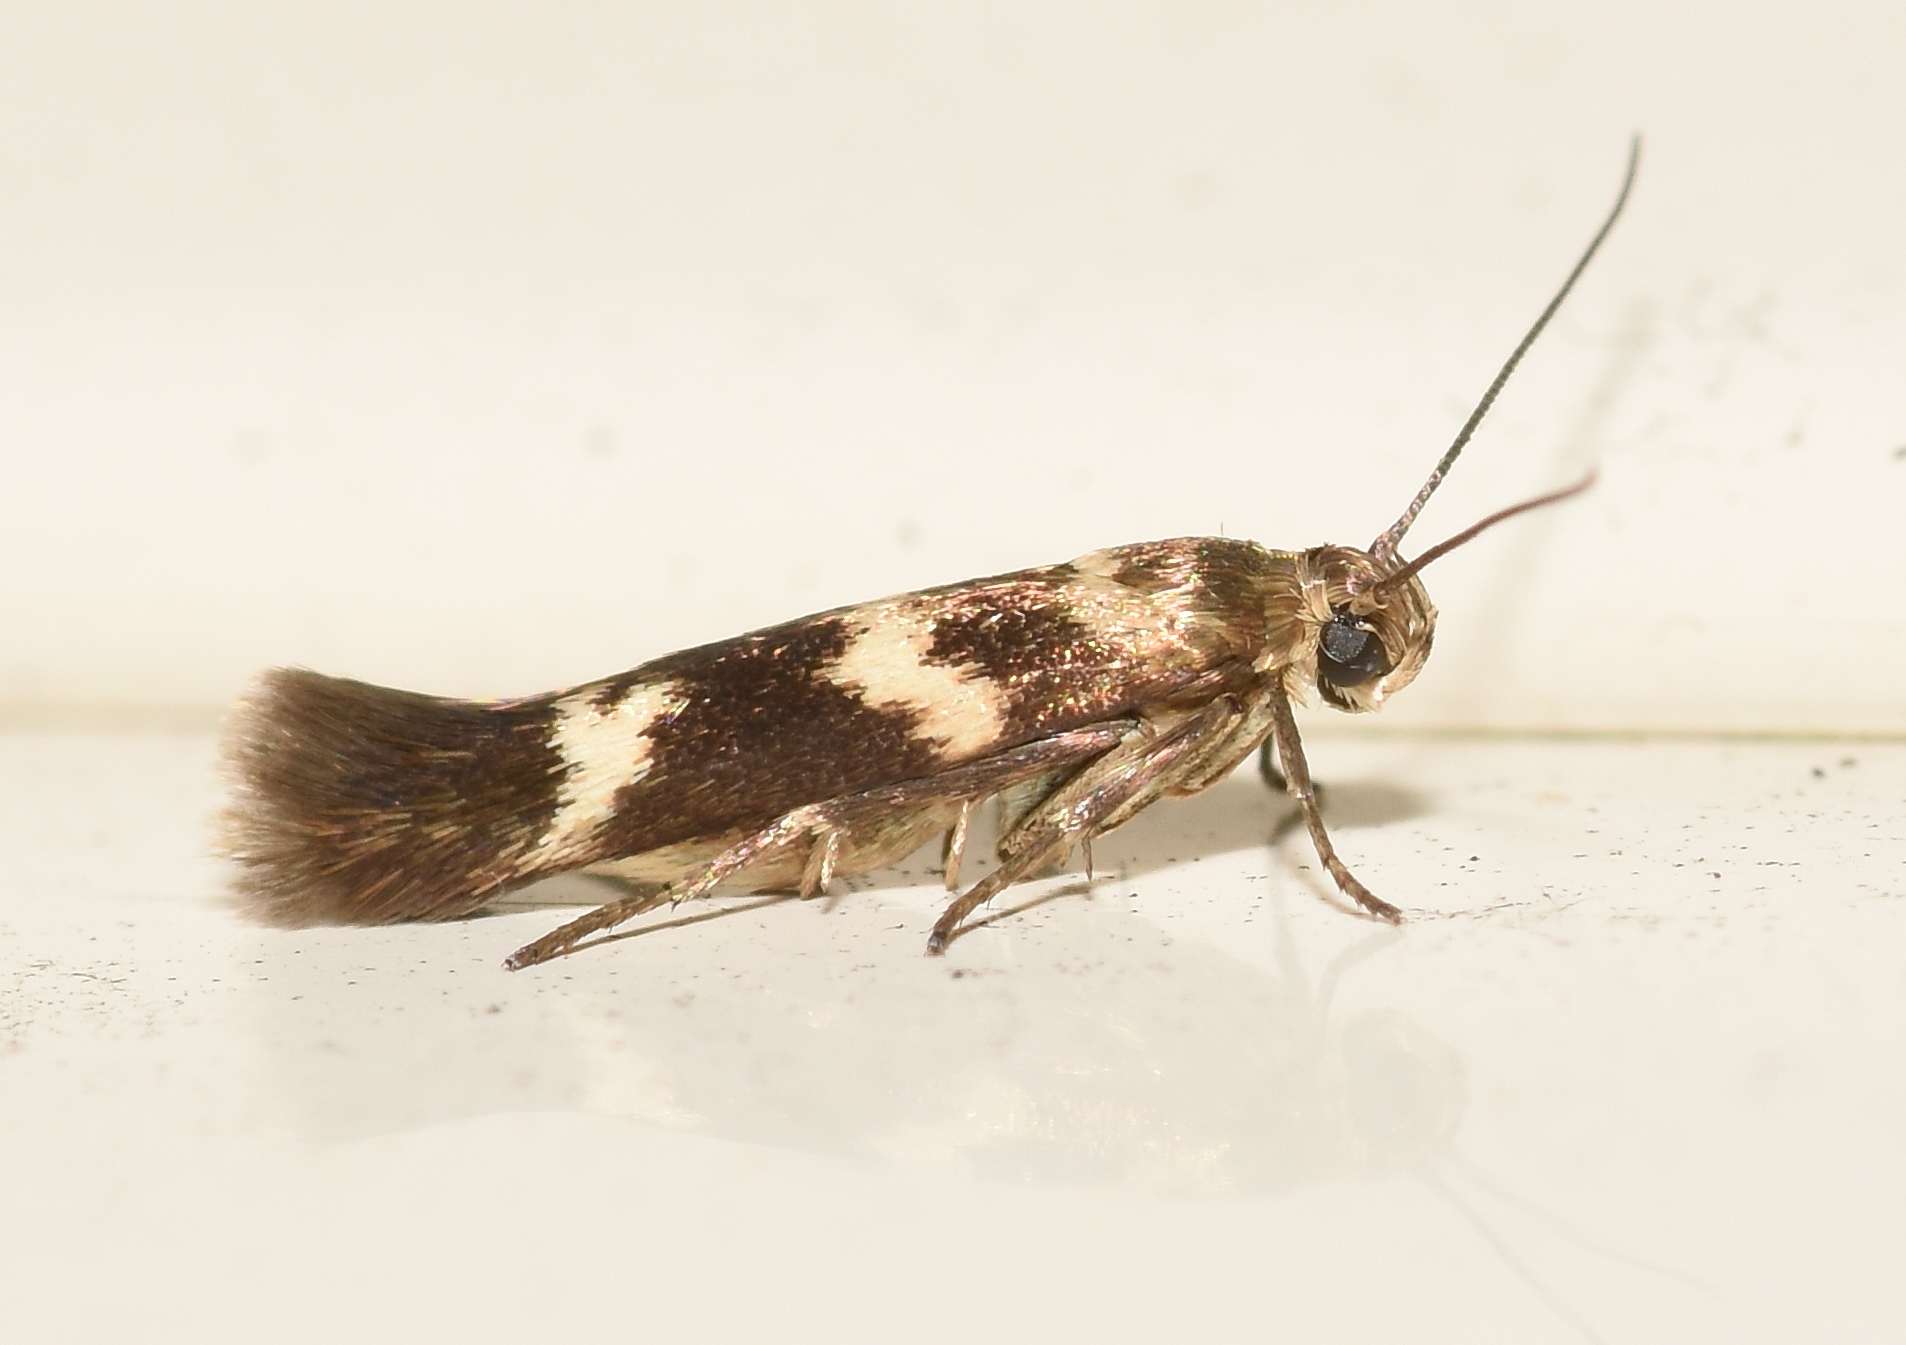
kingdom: Animalia
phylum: Arthropoda
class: Insecta
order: Lepidoptera
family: Scythrididae
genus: Scythris
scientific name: Scythris trivinctella
